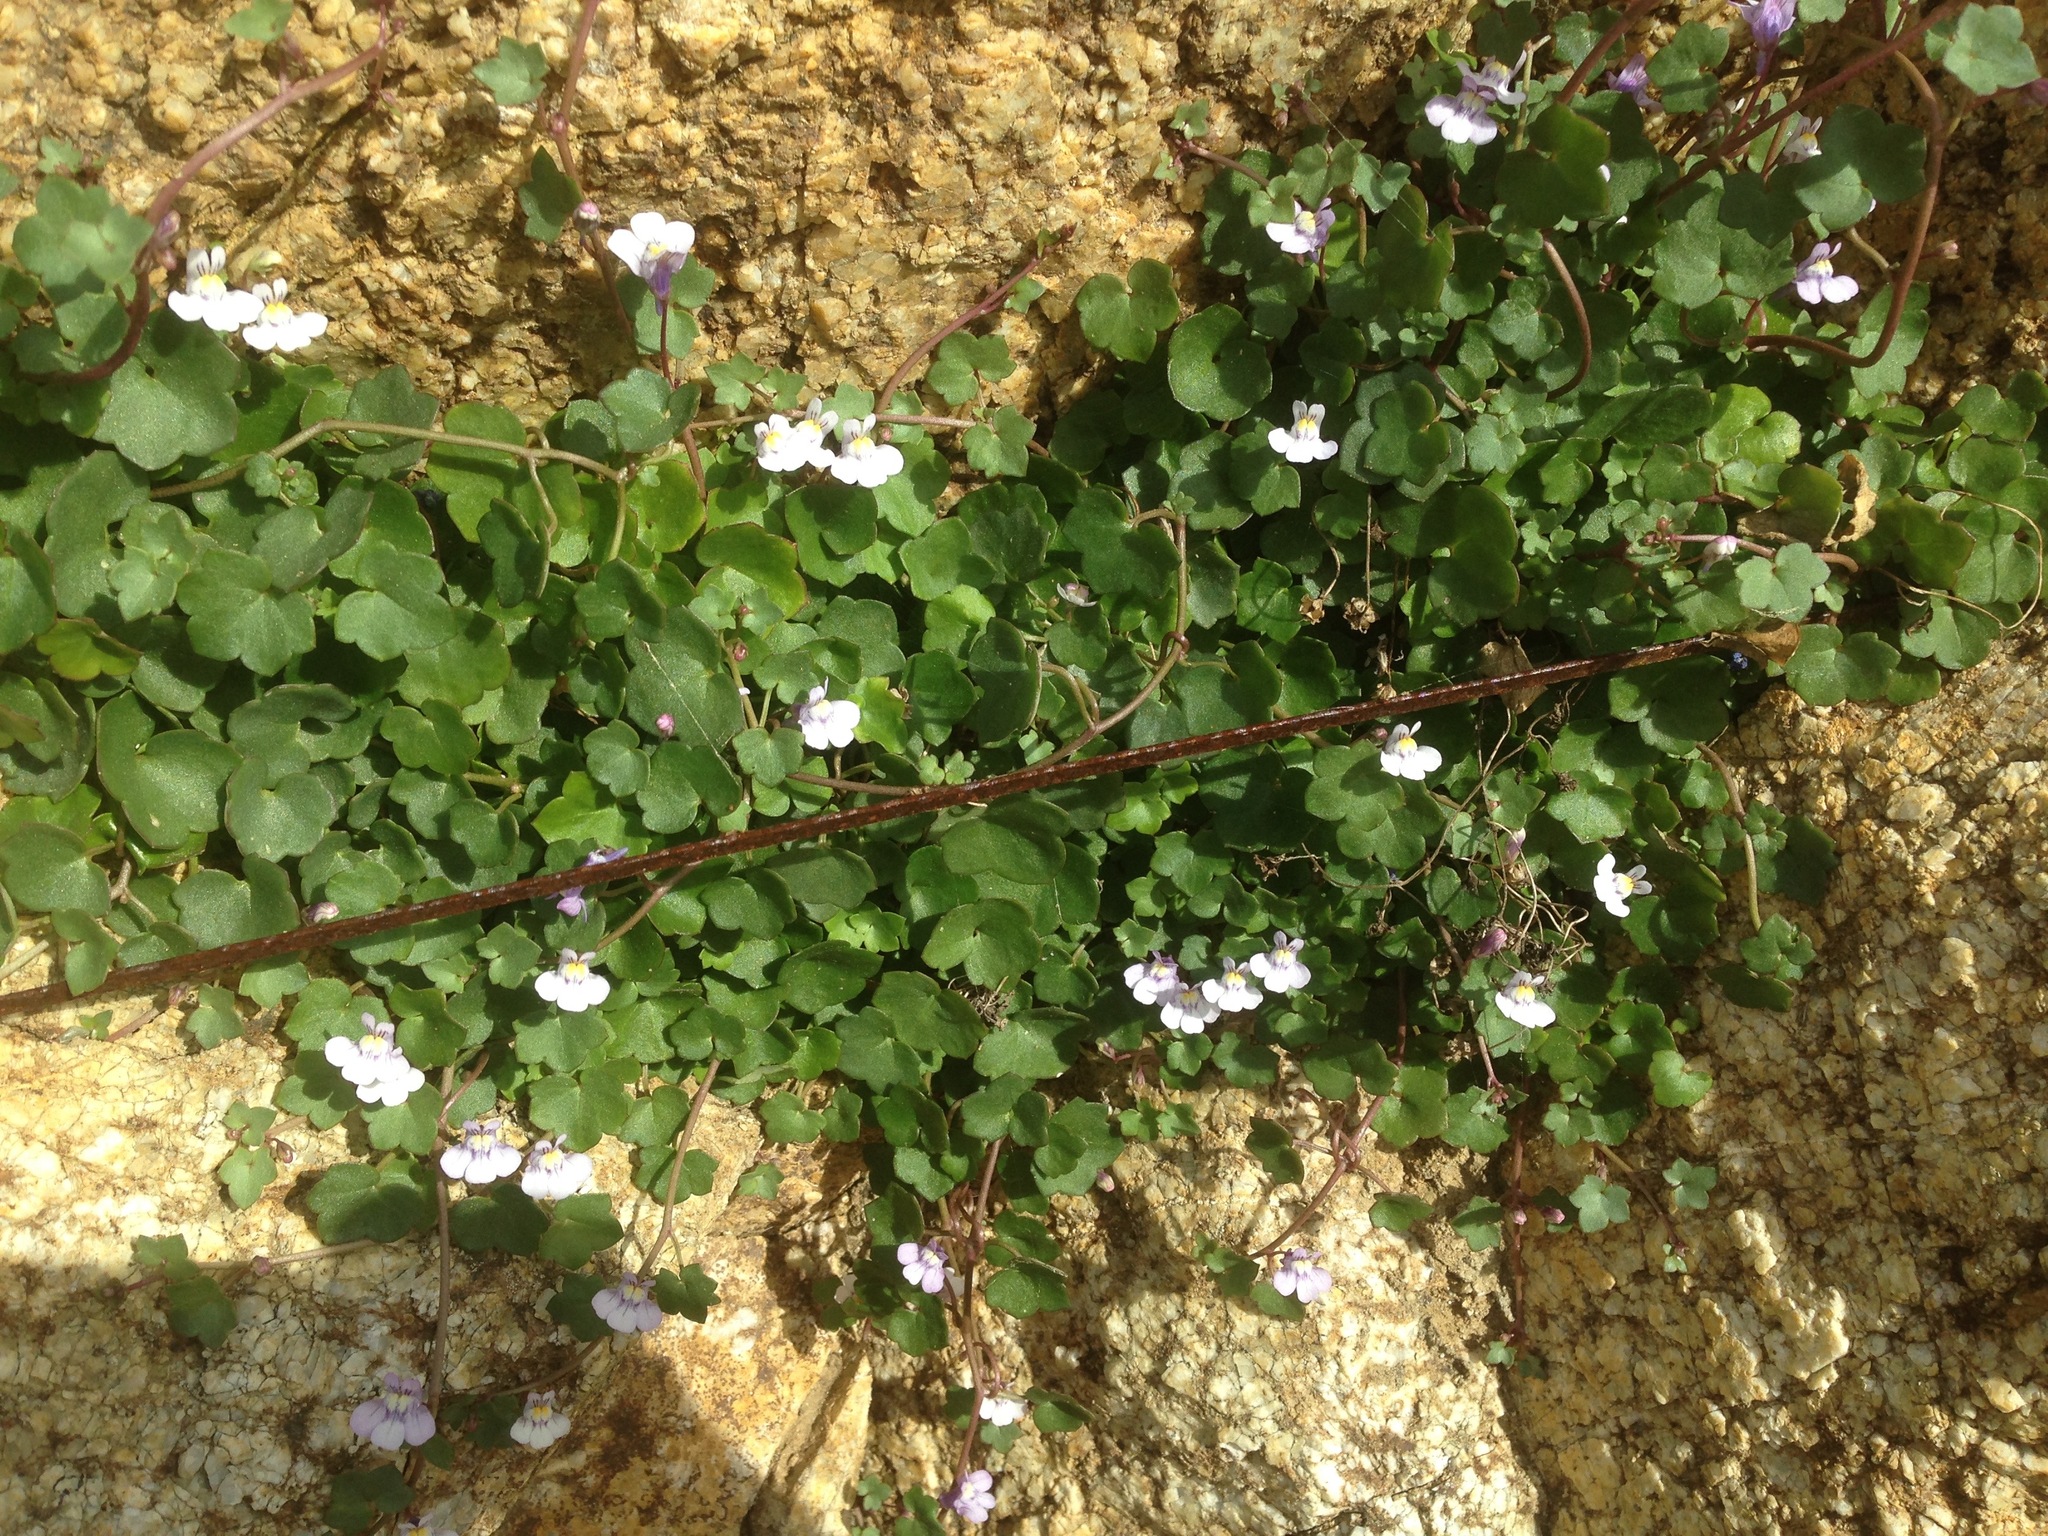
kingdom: Plantae
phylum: Tracheophyta
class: Magnoliopsida
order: Lamiales
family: Plantaginaceae
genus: Cymbalaria
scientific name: Cymbalaria muralis
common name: Ivy-leaved toadflax
